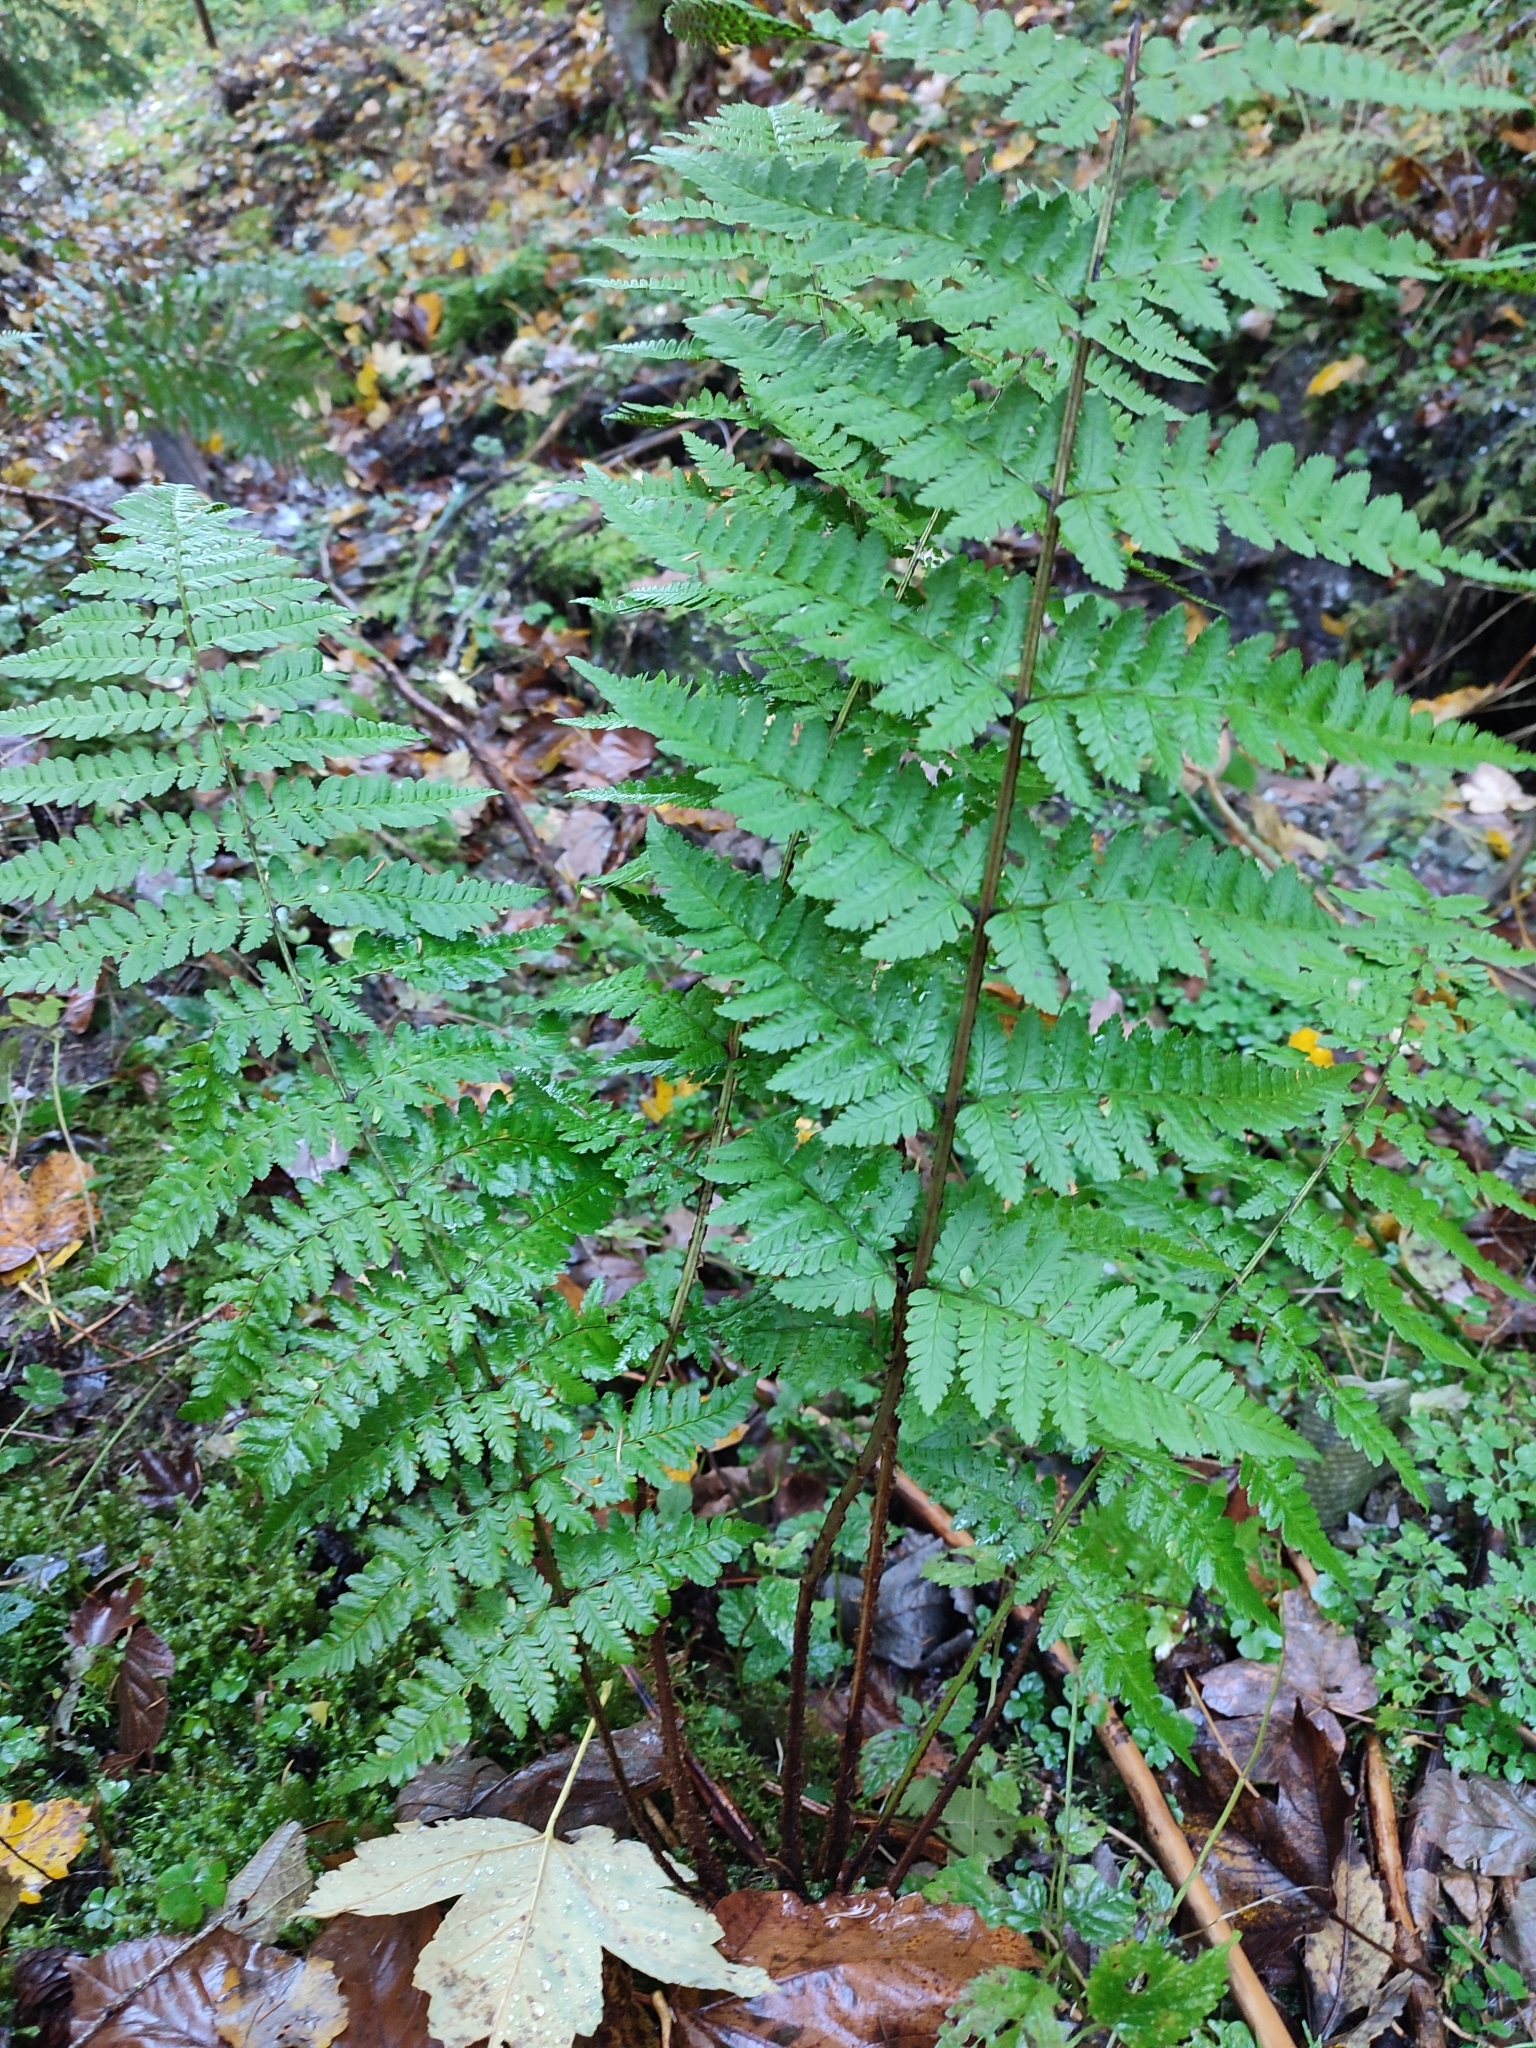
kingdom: Plantae
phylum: Tracheophyta
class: Polypodiopsida
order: Polypodiales
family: Dryopteridaceae
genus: Dryopteris
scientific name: Dryopteris remota
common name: Scaly buckler-fern
